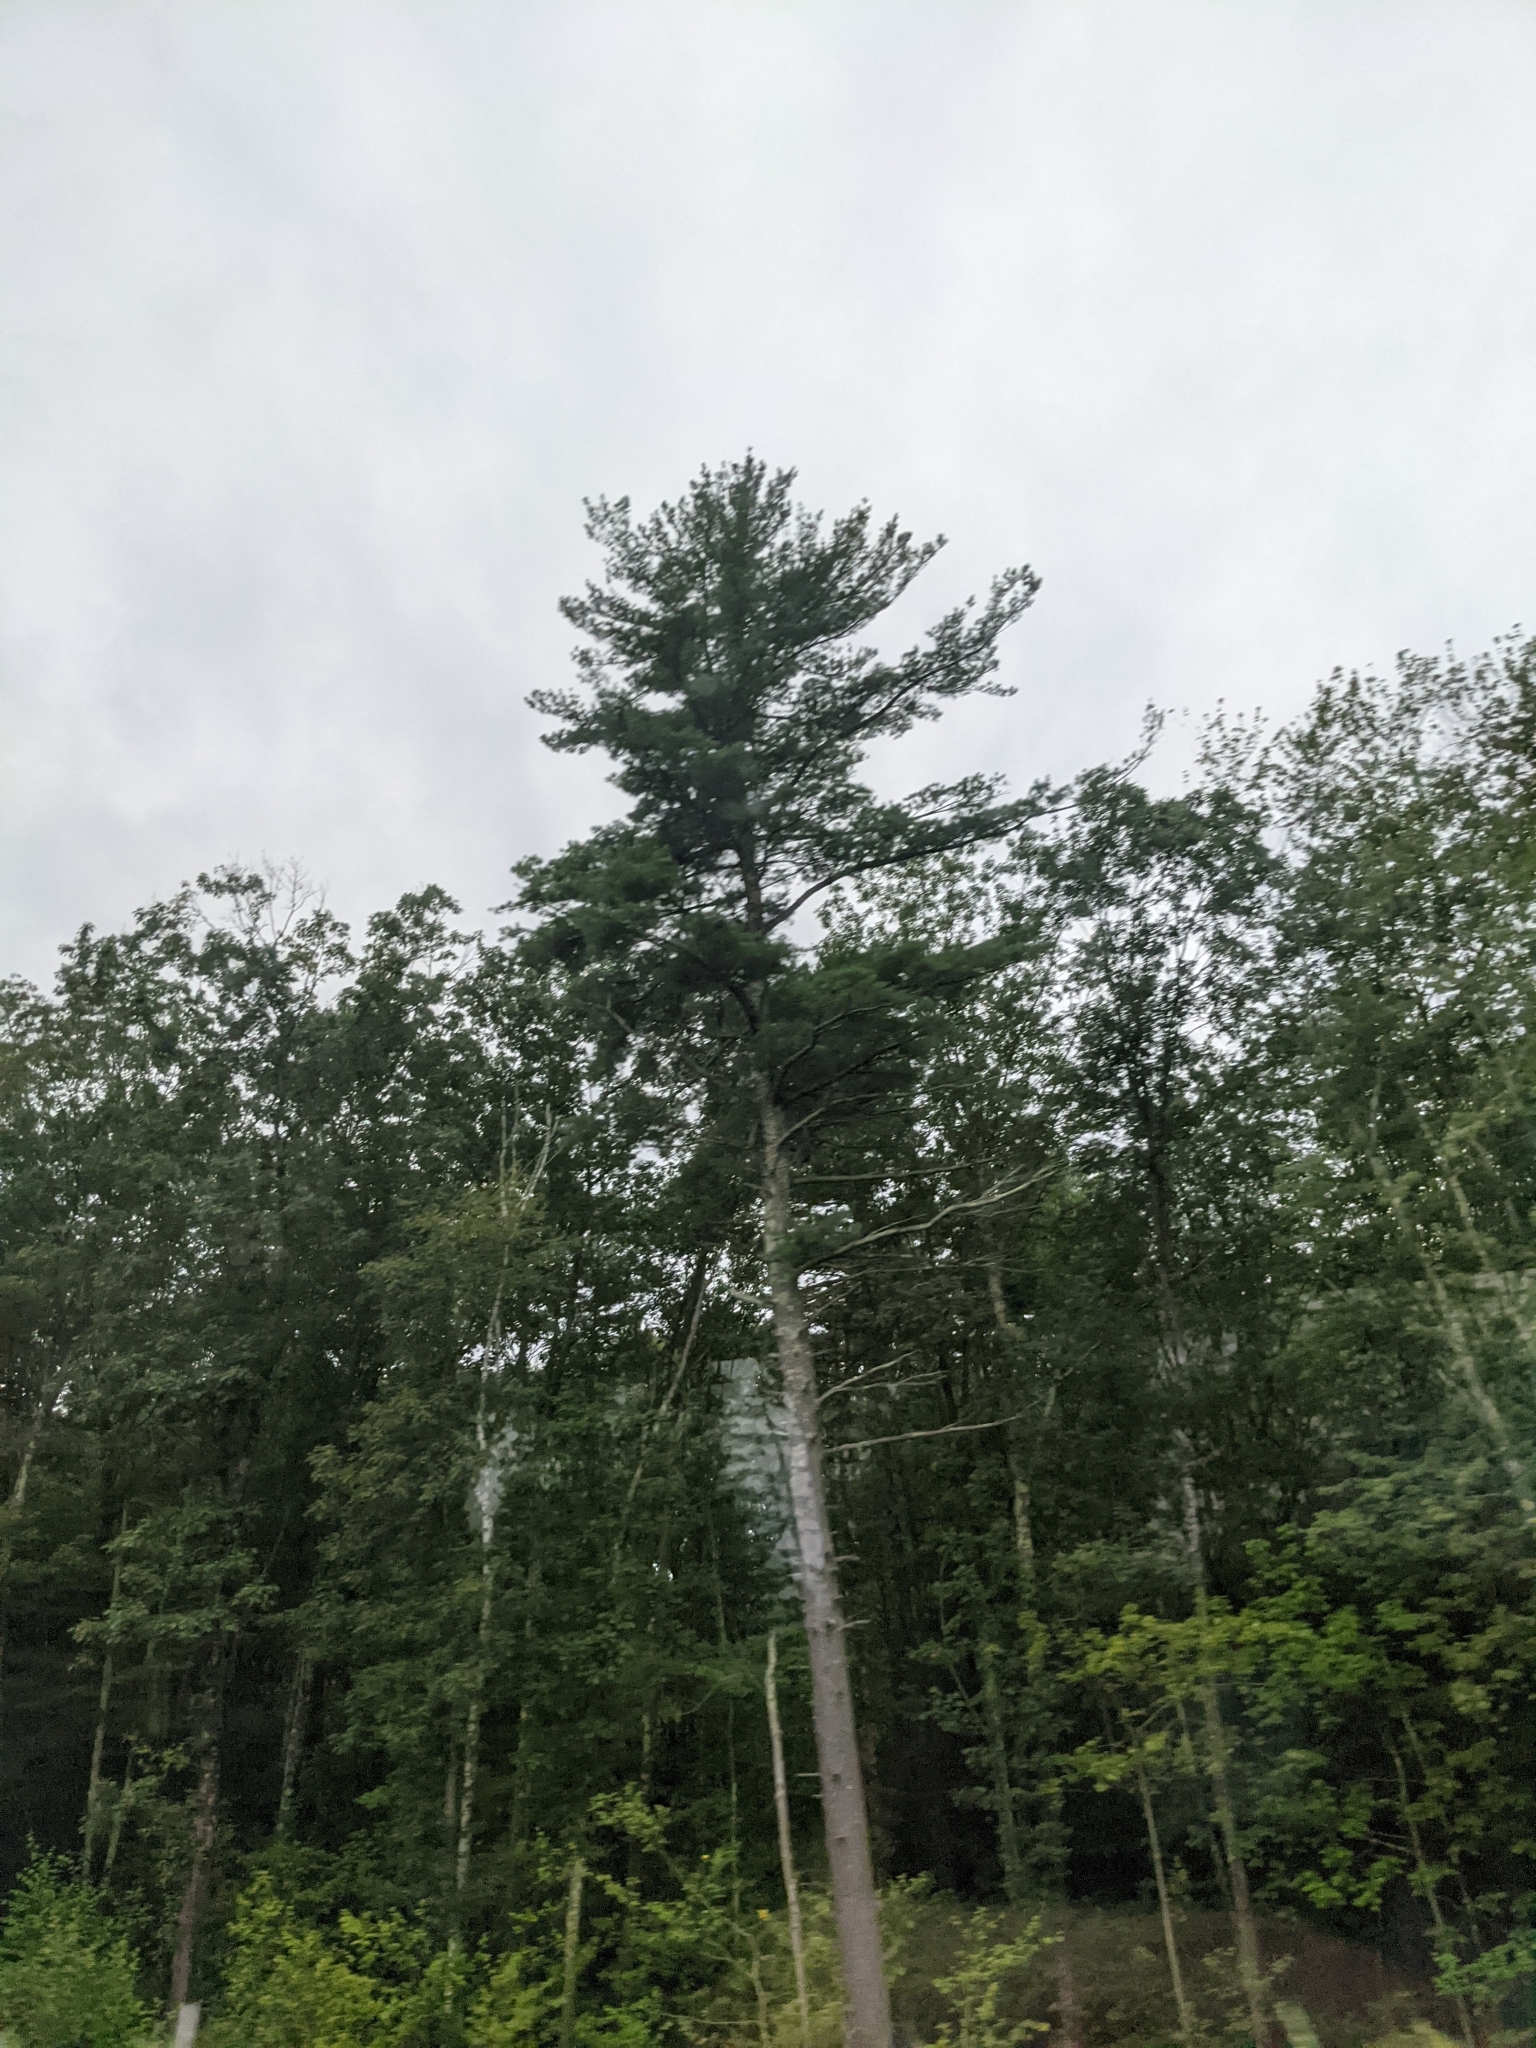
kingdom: Plantae
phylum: Tracheophyta
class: Pinopsida
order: Pinales
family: Pinaceae
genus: Pinus
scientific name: Pinus strobus
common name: Weymouth pine
